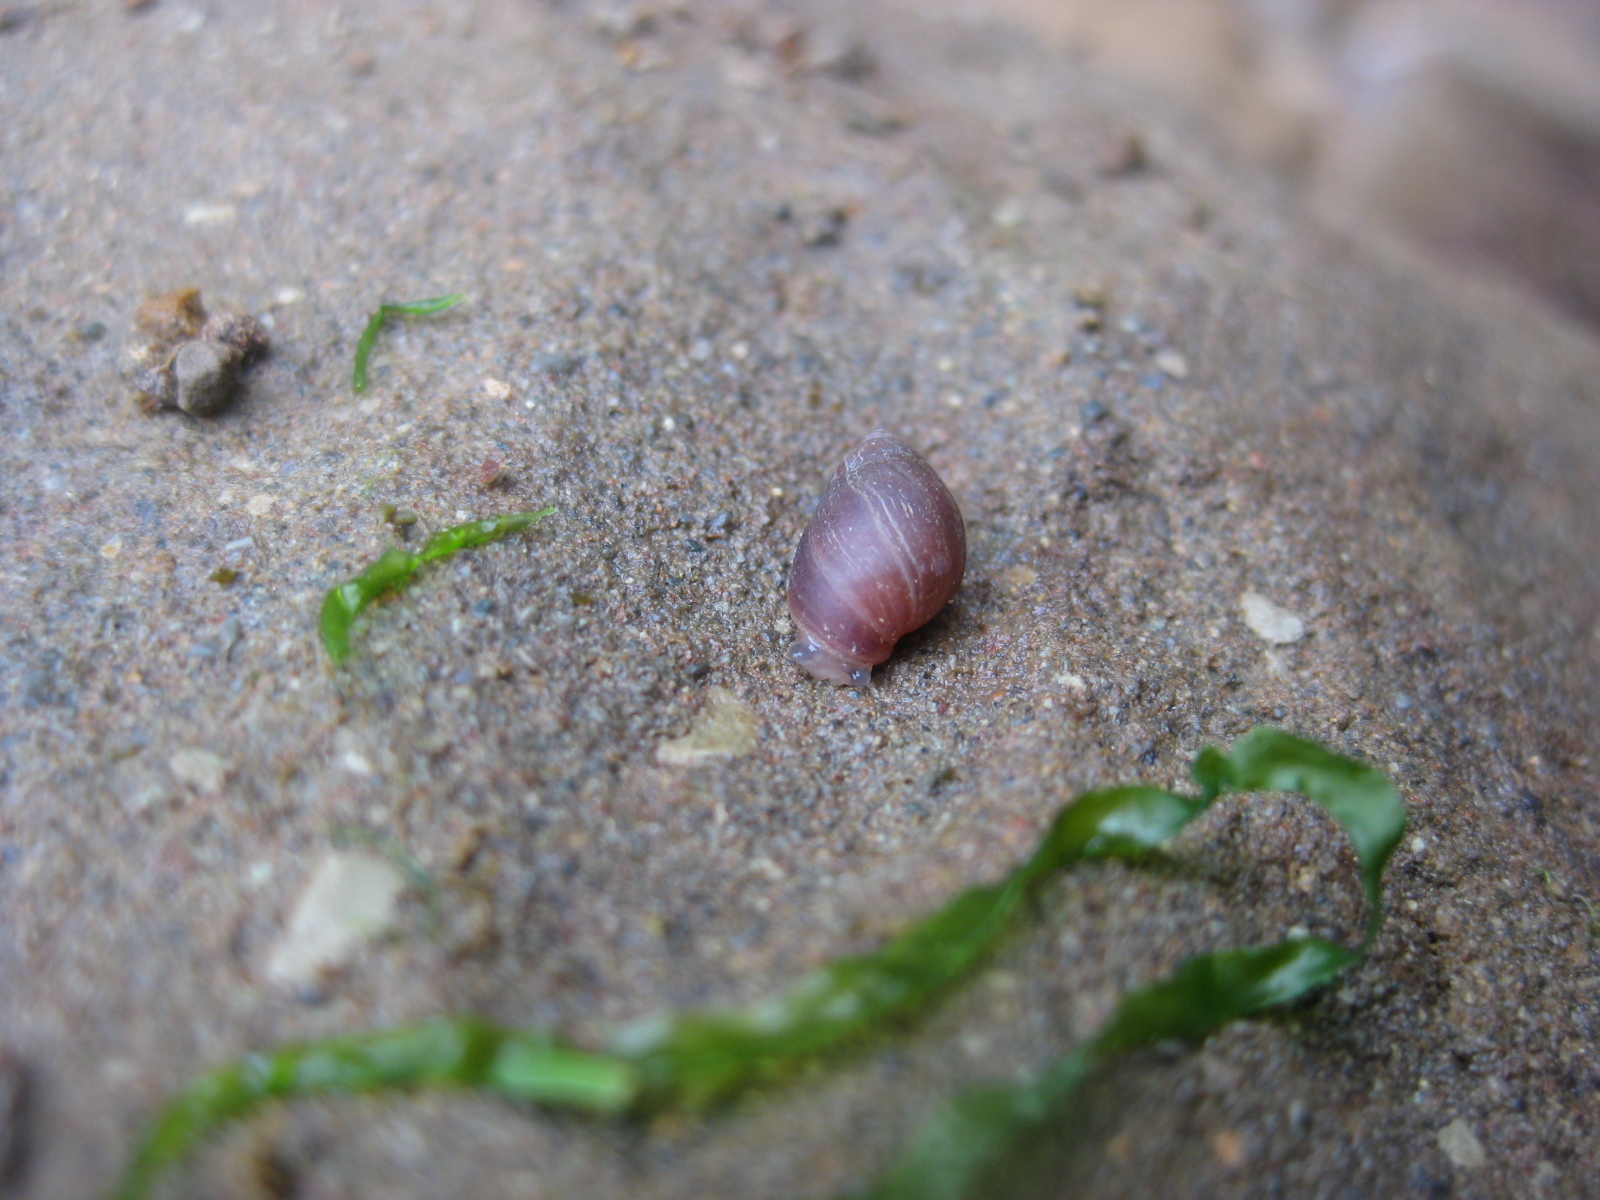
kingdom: Animalia
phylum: Mollusca
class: Gastropoda
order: Ellobiida
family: Ellobiidae
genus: Marinula
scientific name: Marinula filholi
